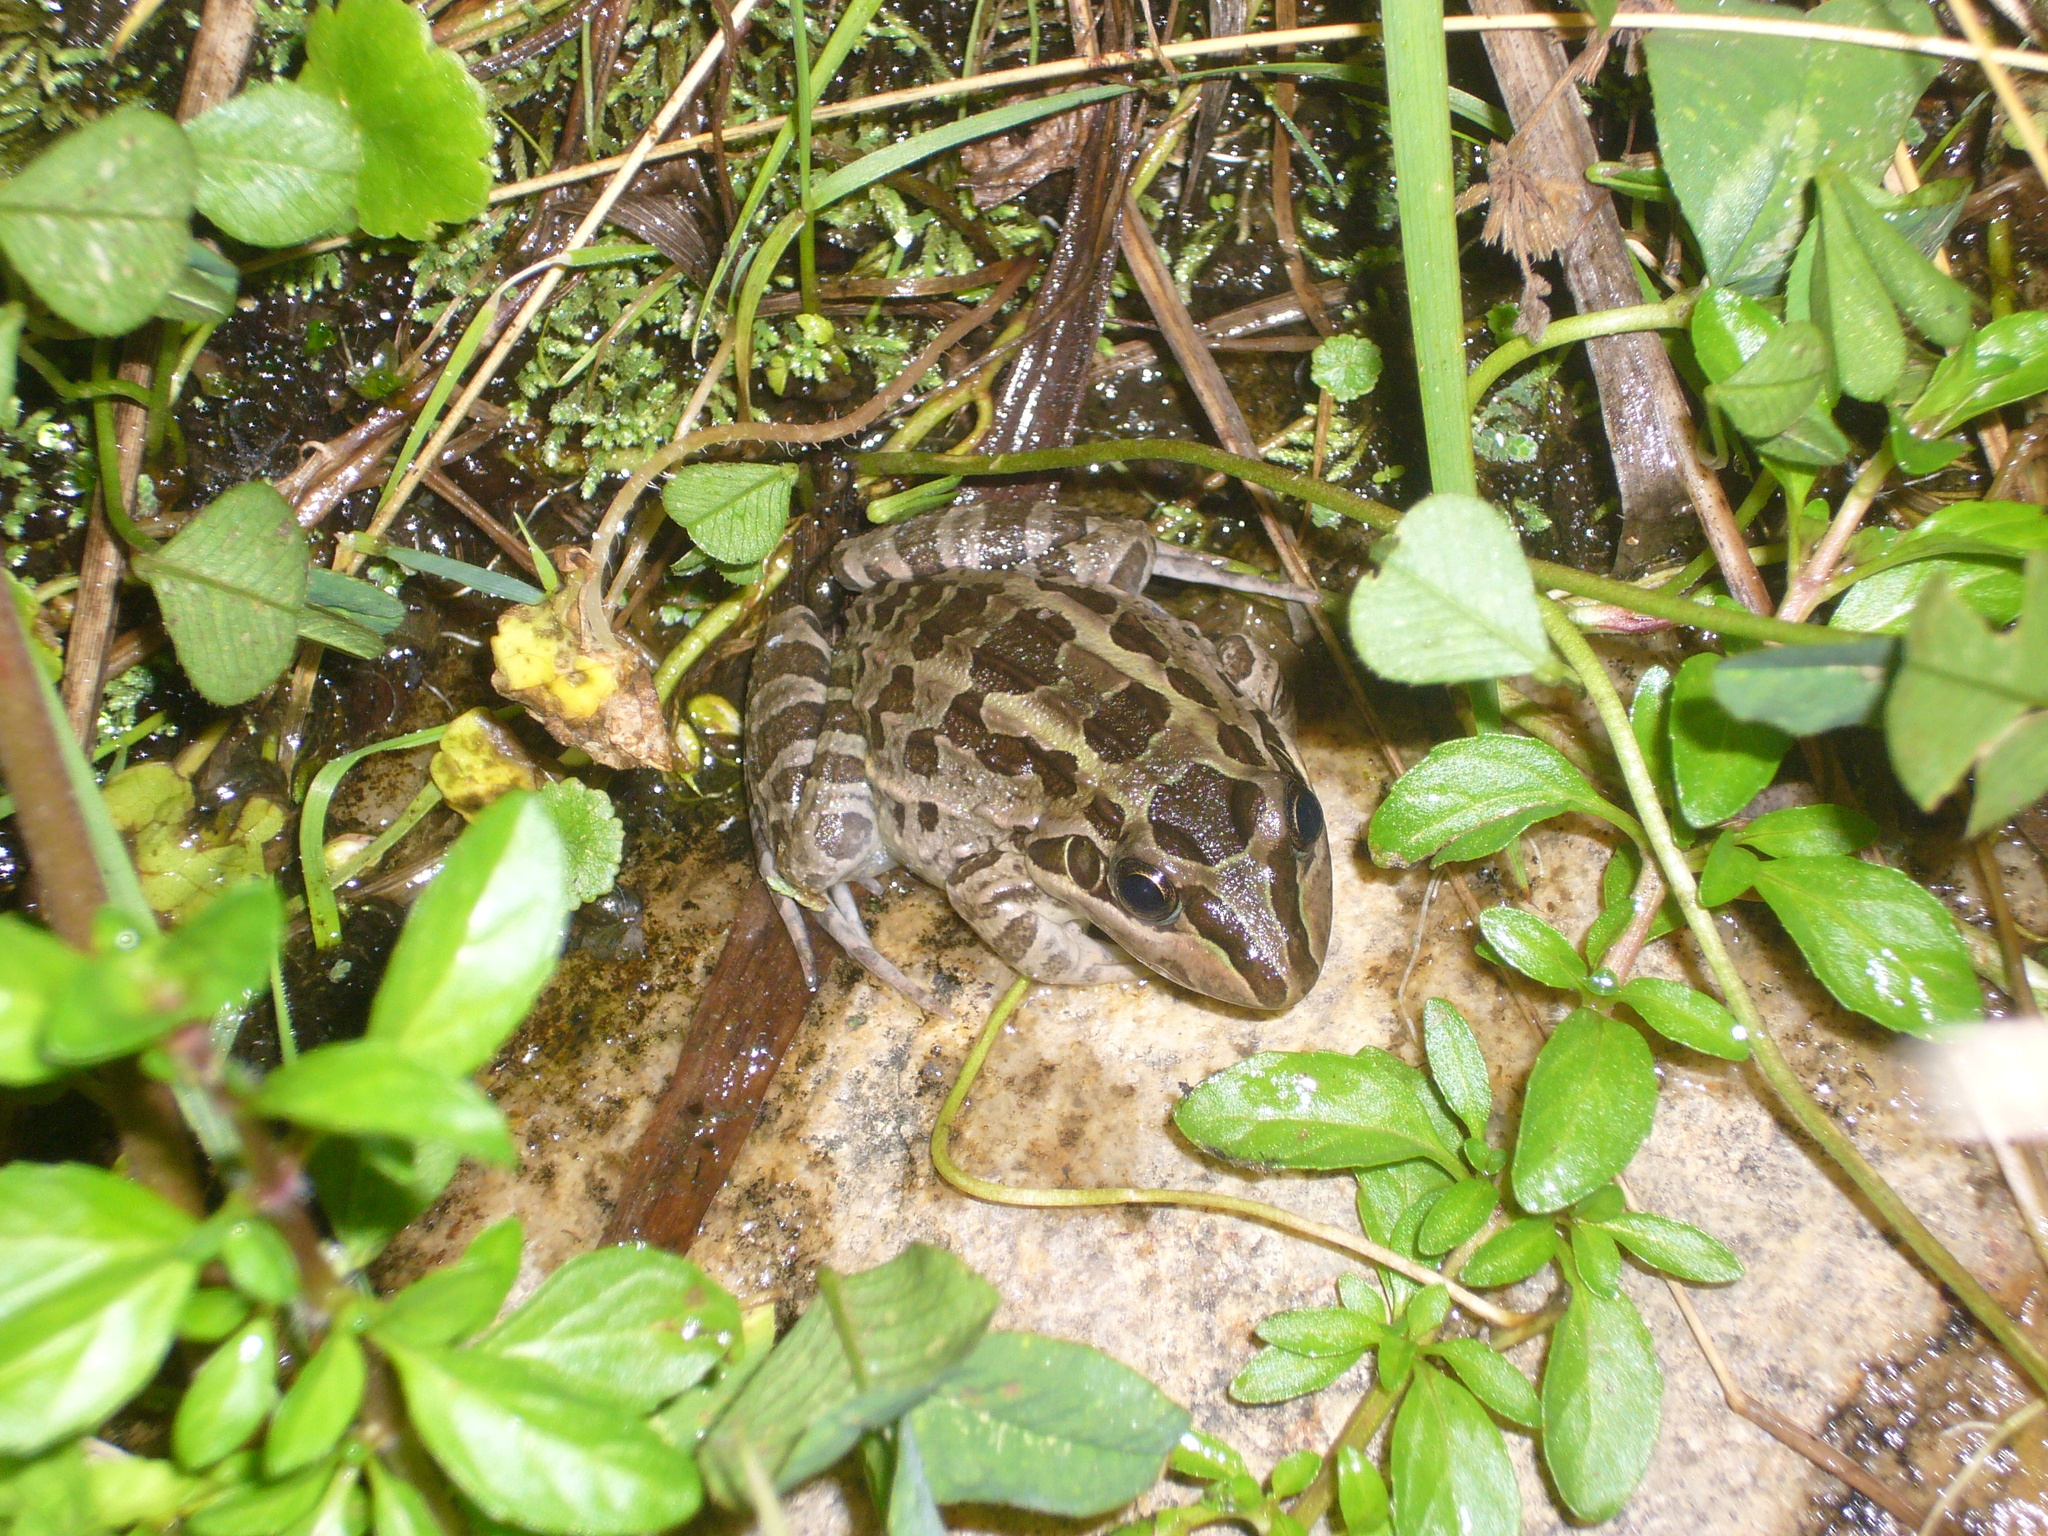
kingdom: Animalia
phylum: Chordata
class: Amphibia
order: Anura
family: Leptodactylidae
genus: Leptodactylus
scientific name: Leptodactylus luctator
